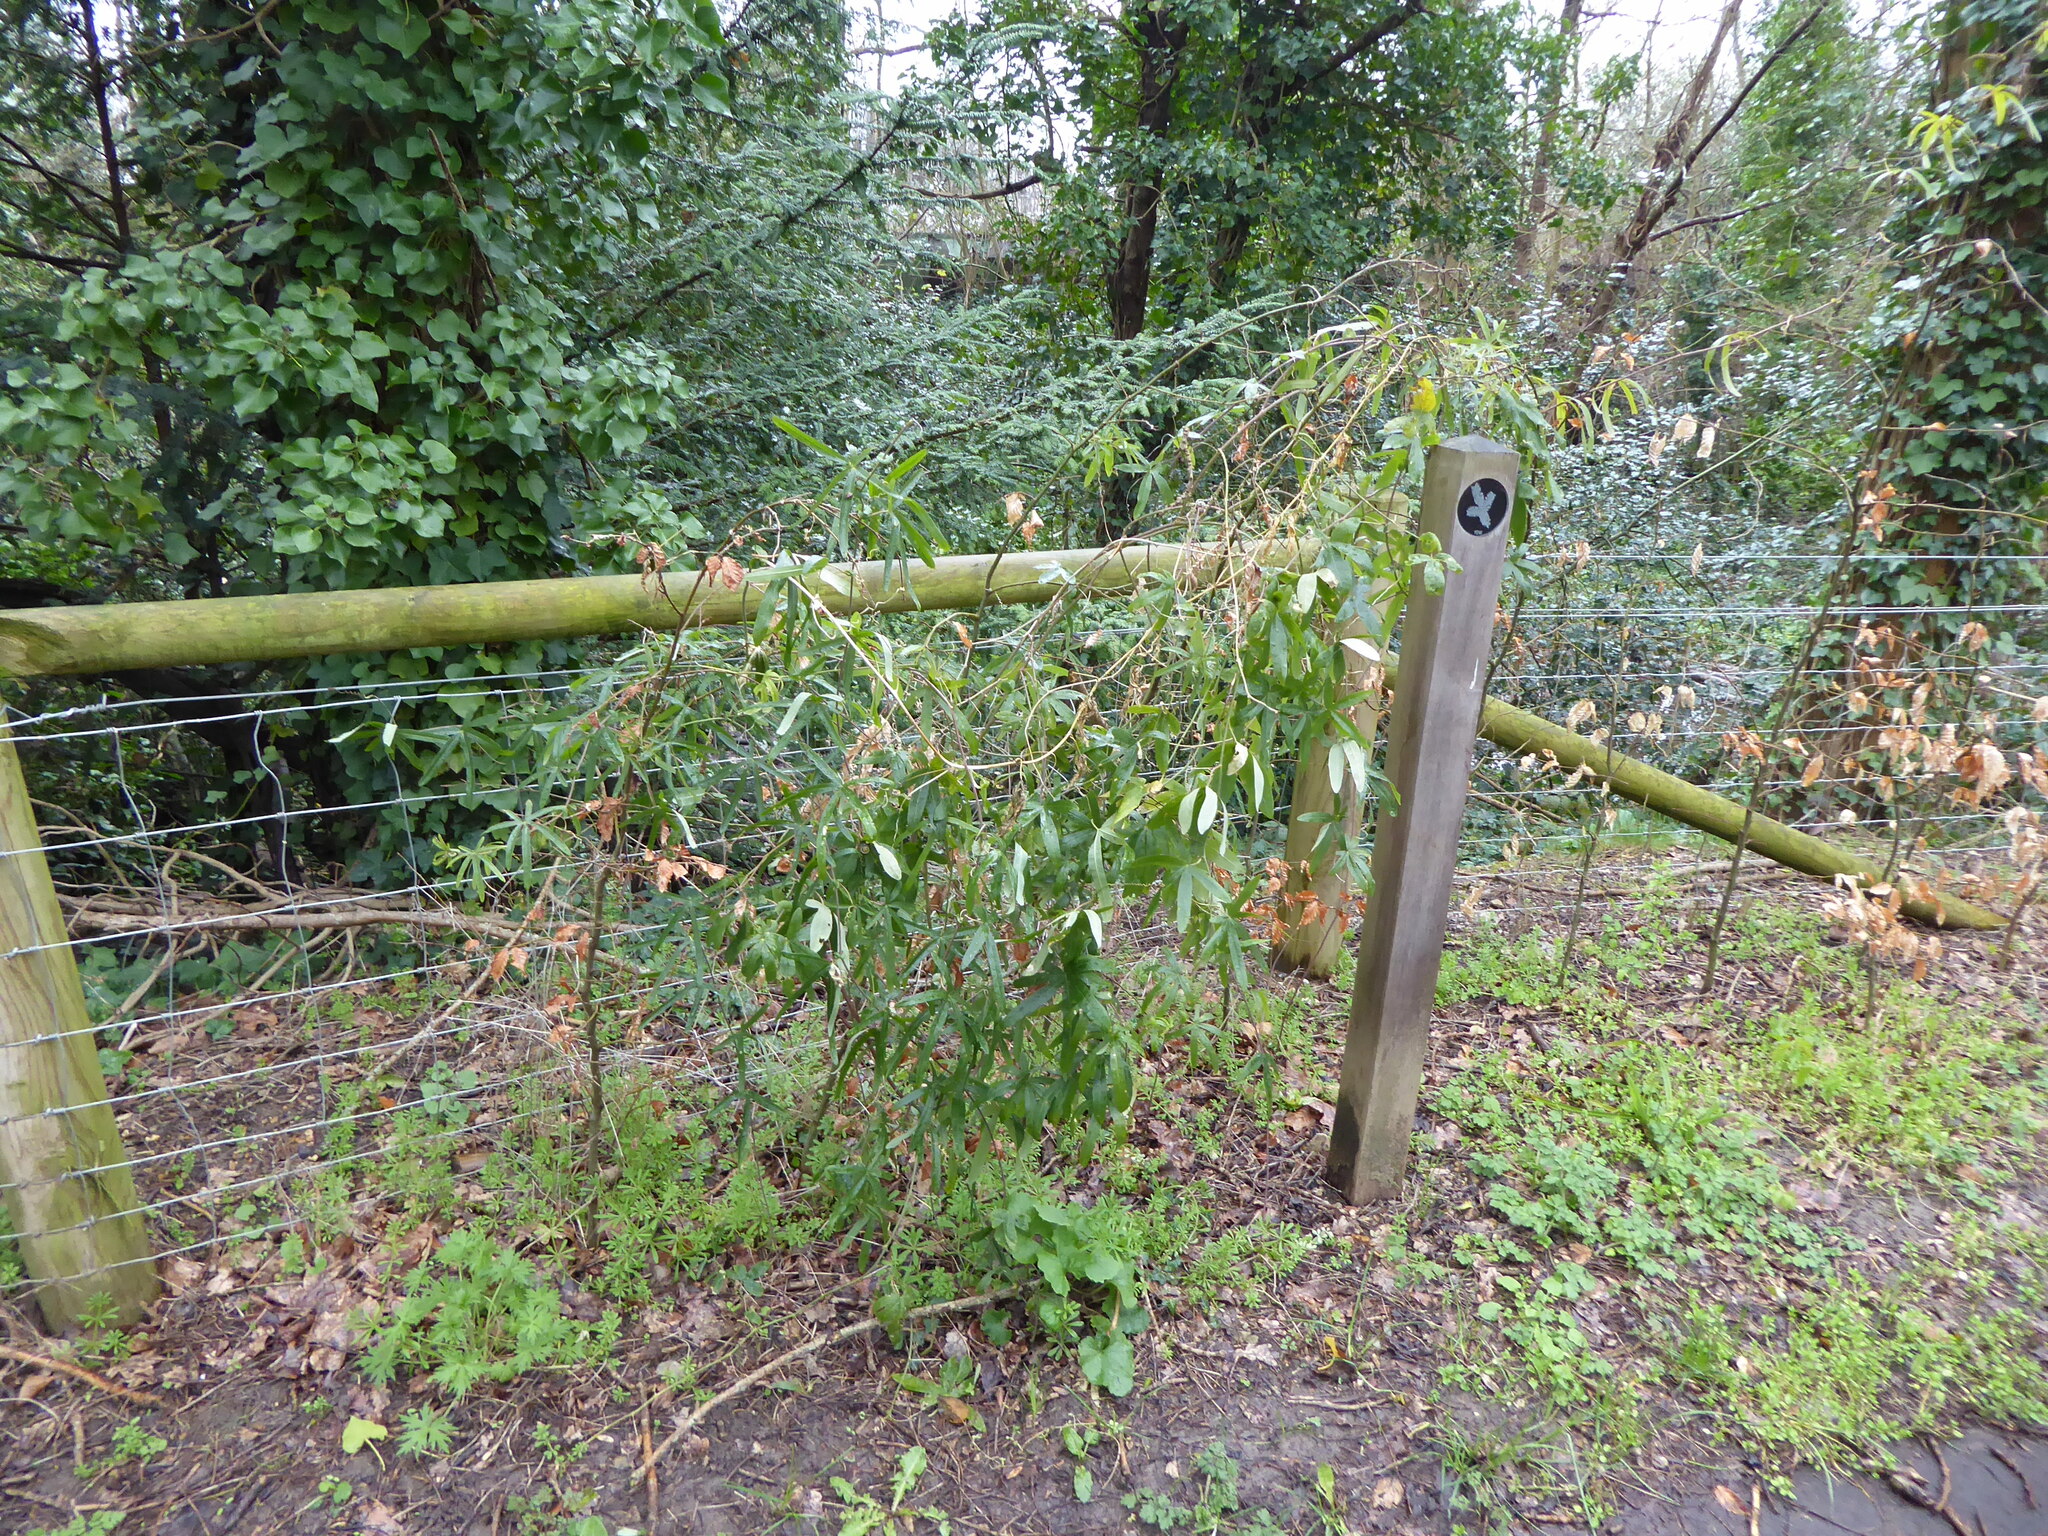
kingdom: Plantae
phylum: Tracheophyta
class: Magnoliopsida
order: Malpighiales
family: Passifloraceae
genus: Passiflora
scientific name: Passiflora caerulea
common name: Blue passionflower
